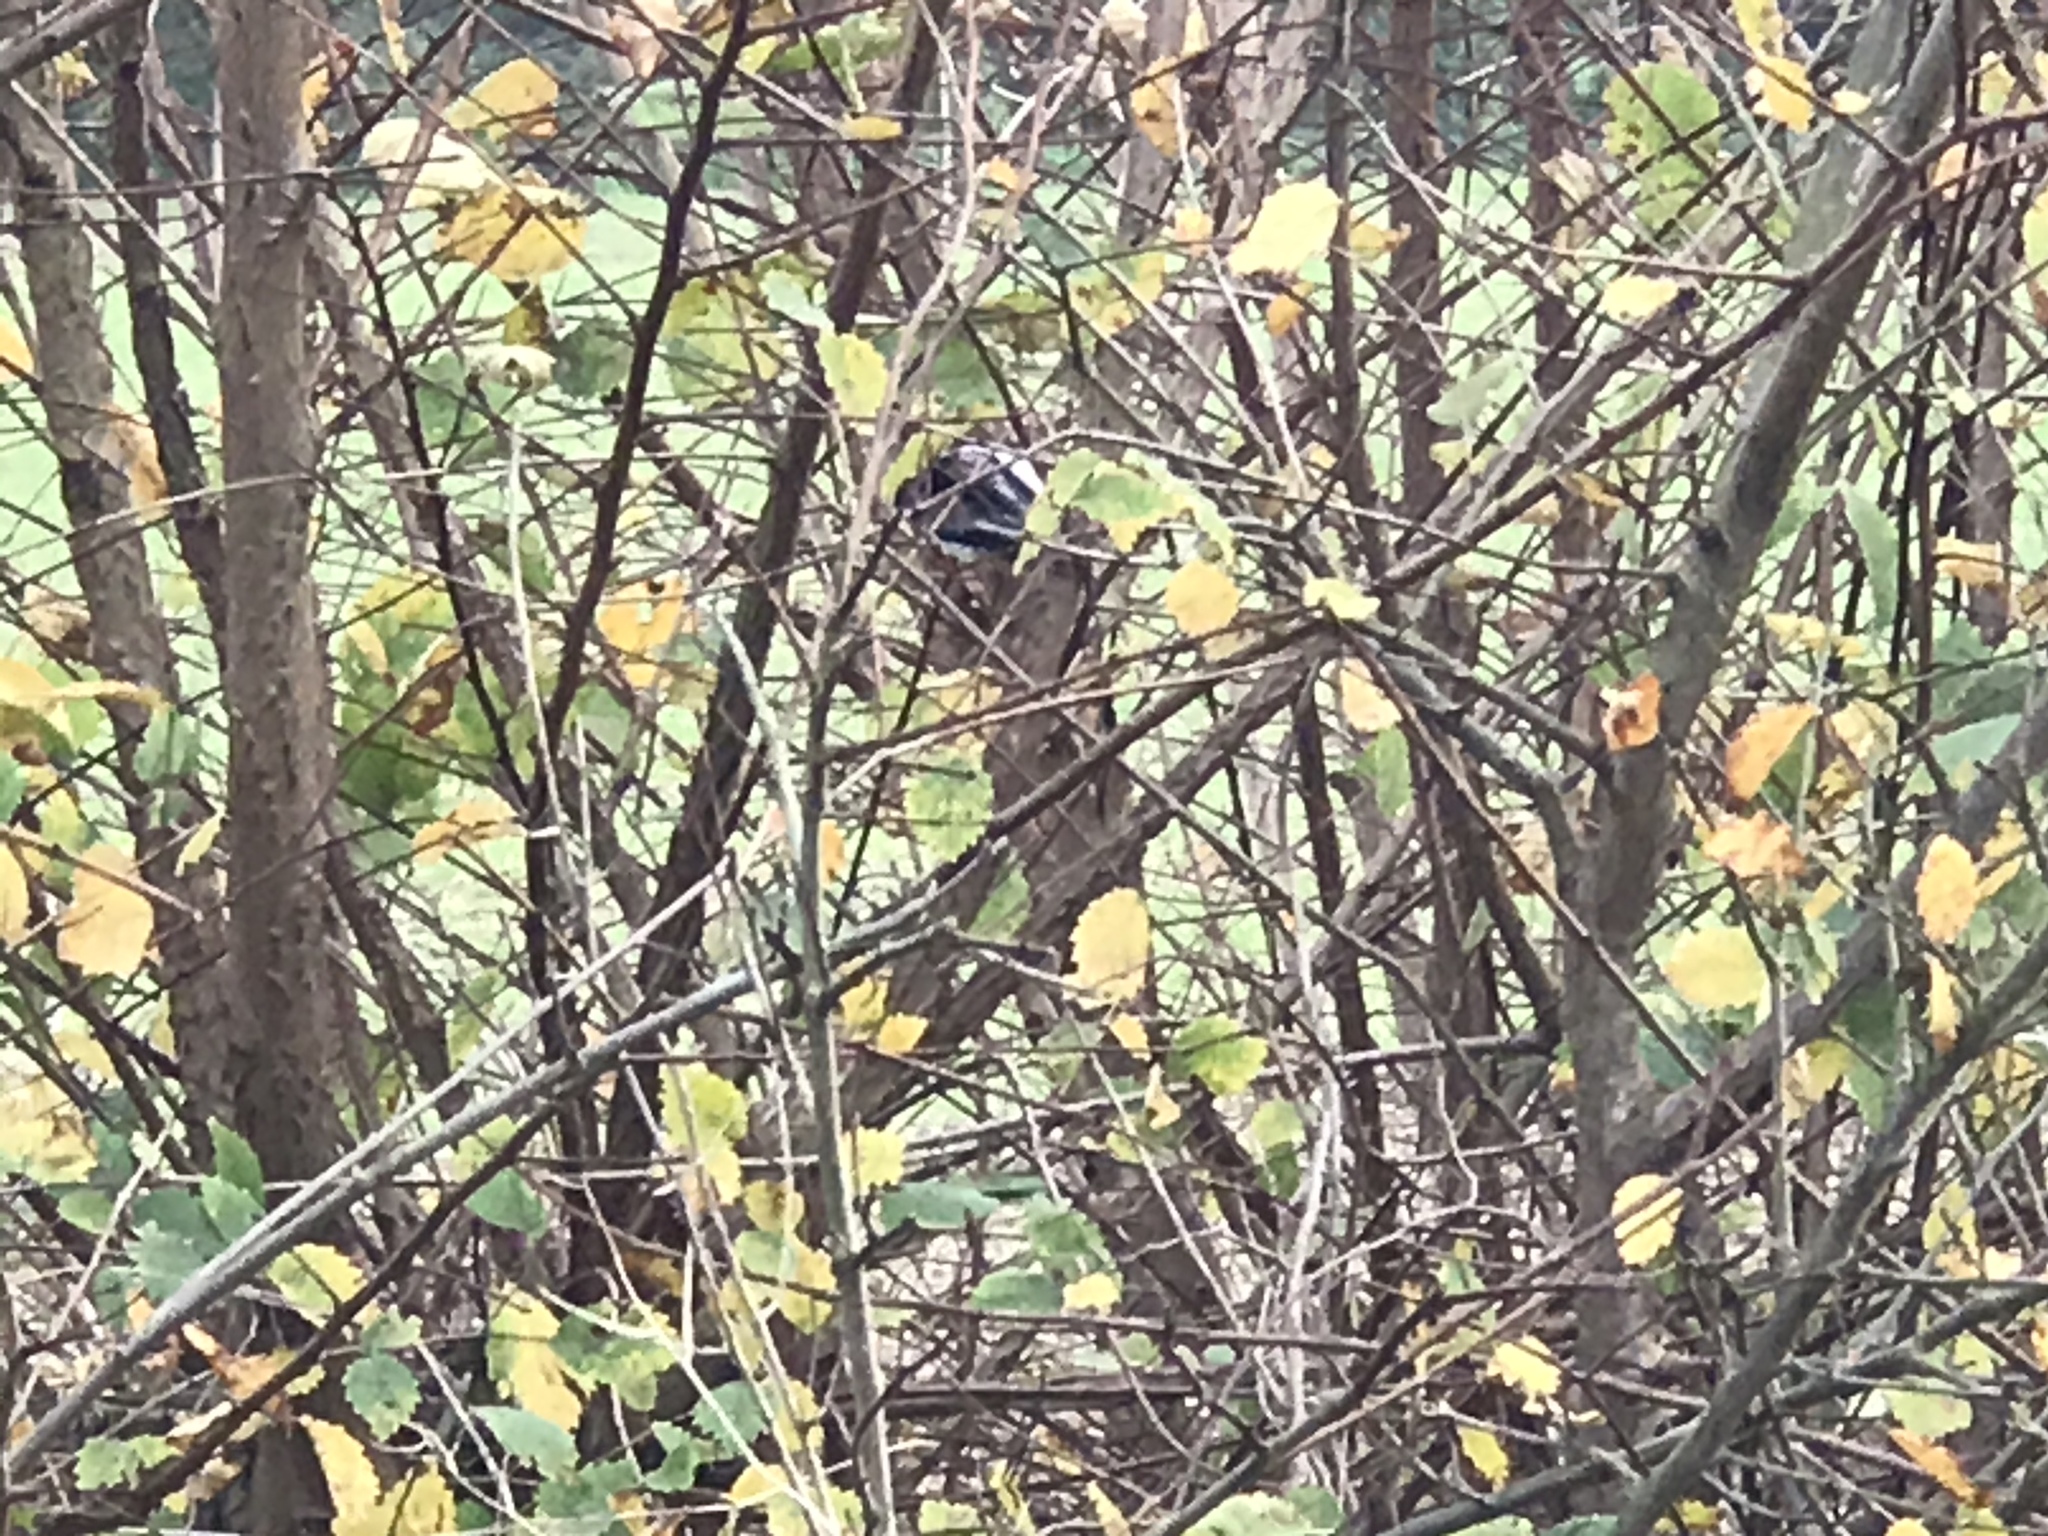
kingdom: Animalia
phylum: Chordata
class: Aves
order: Passeriformes
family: Aegithalidae
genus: Aegithalos
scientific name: Aegithalos caudatus
